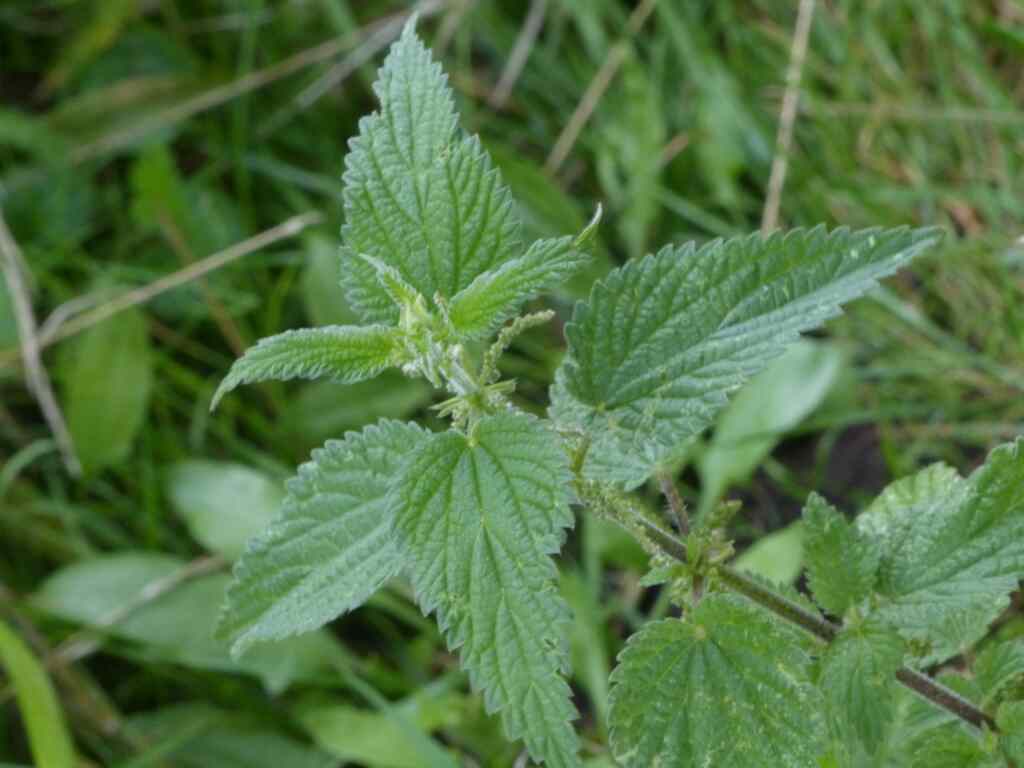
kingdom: Plantae
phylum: Tracheophyta
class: Magnoliopsida
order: Rosales
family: Urticaceae
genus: Urtica
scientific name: Urtica dioica
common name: Common nettle
